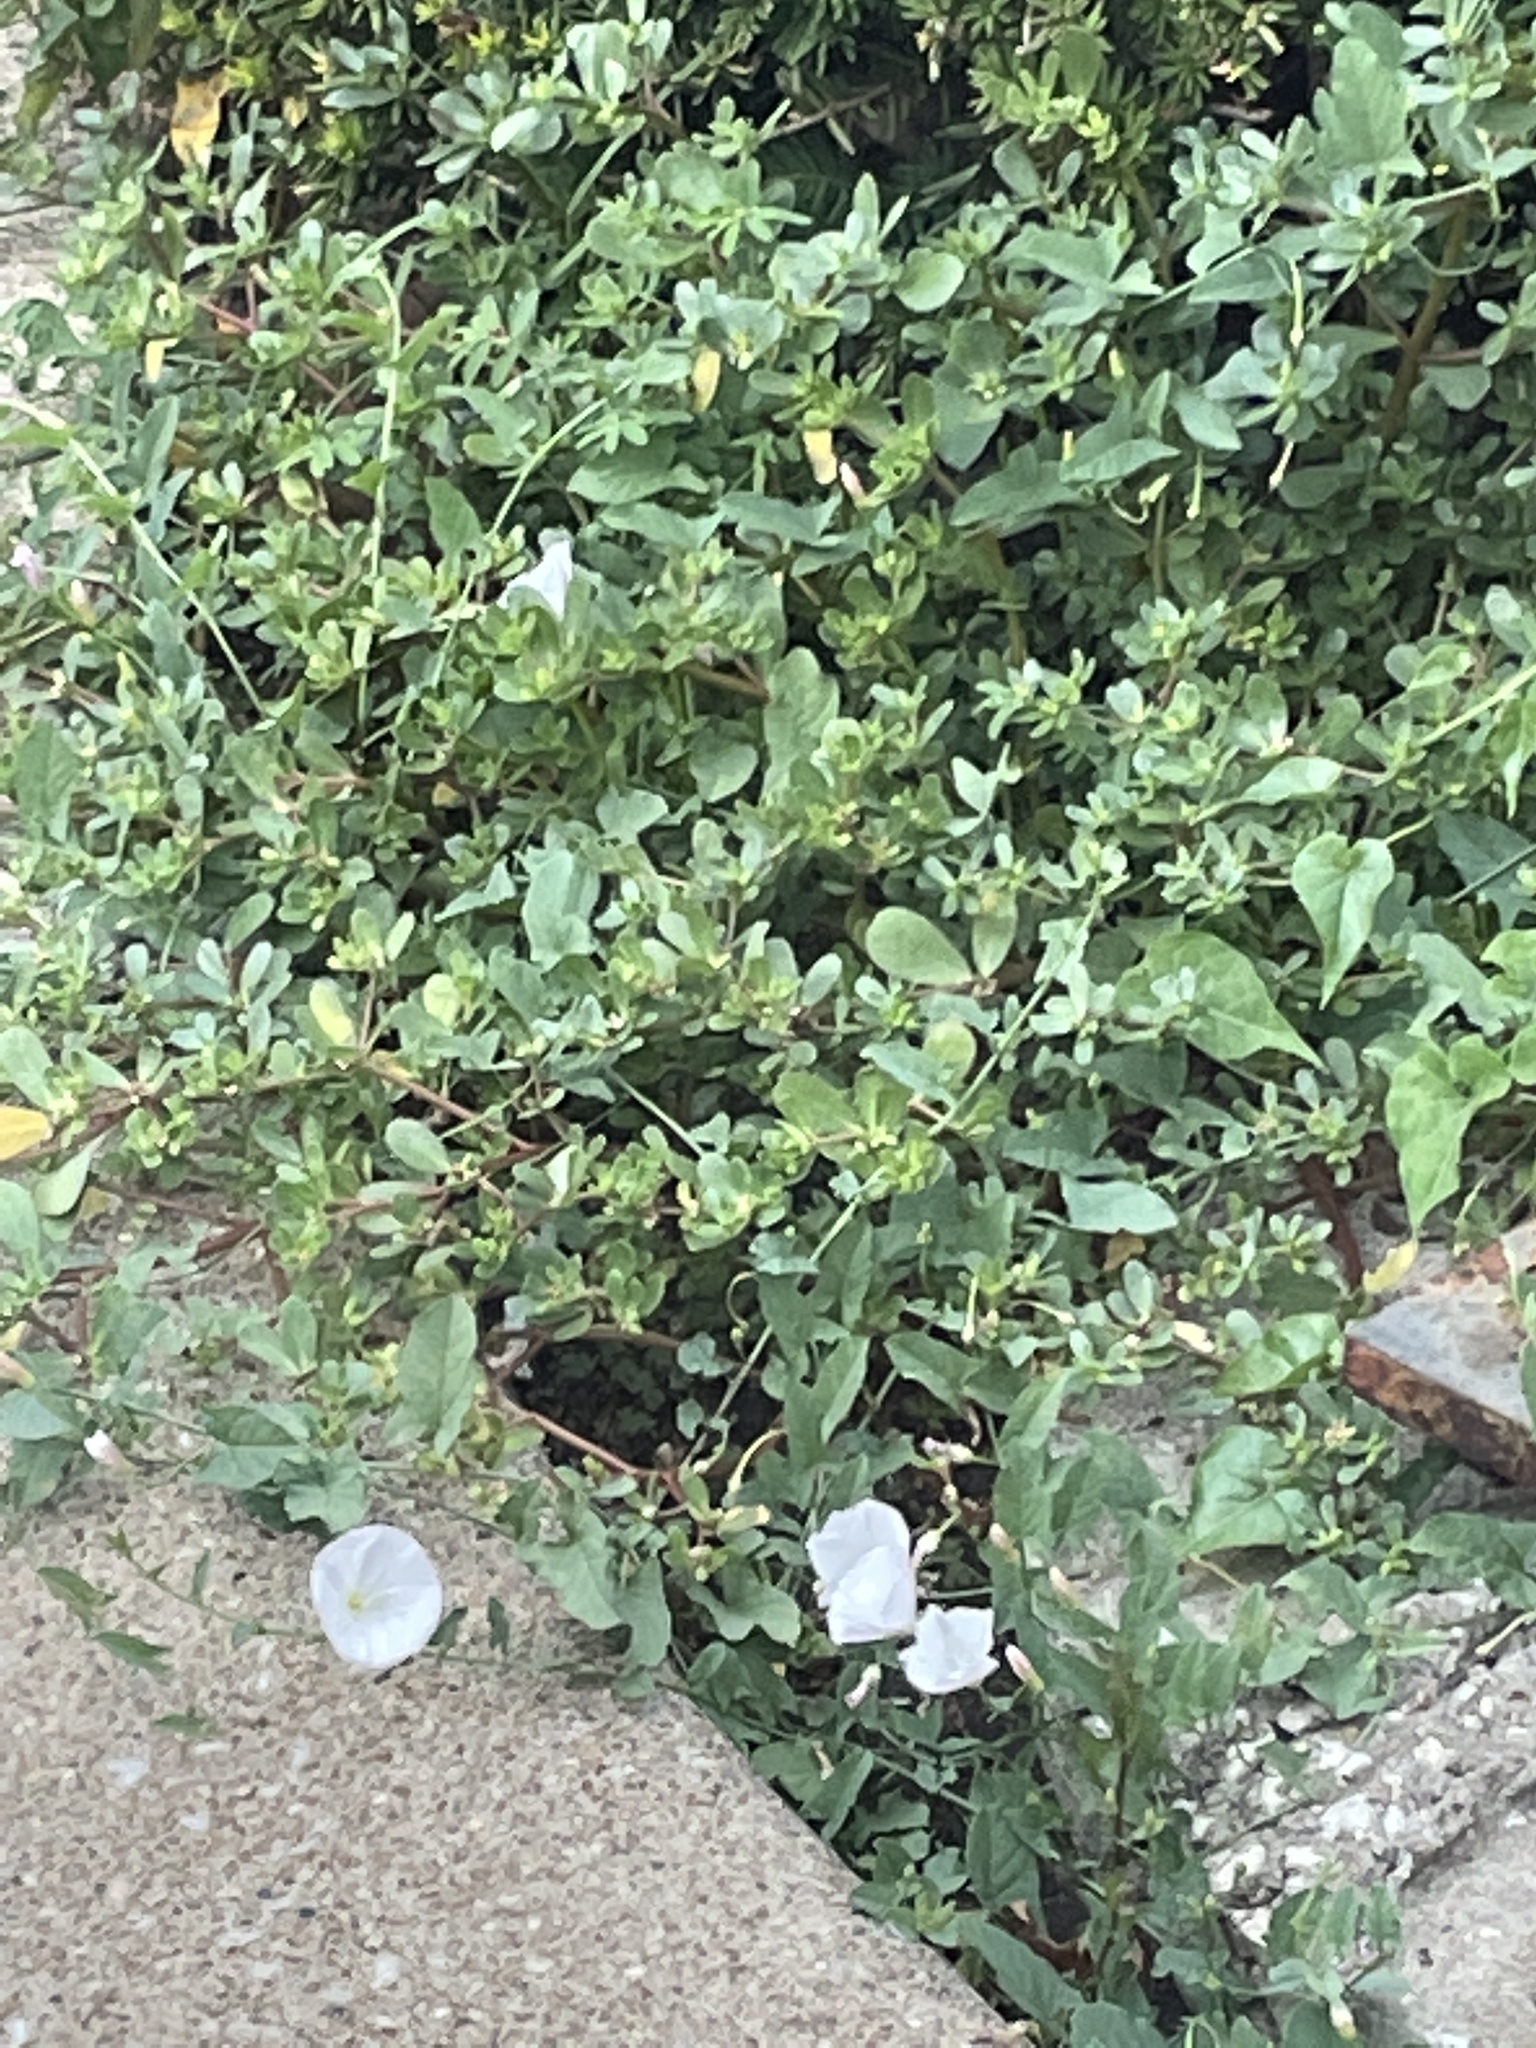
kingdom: Plantae
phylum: Tracheophyta
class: Magnoliopsida
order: Solanales
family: Convolvulaceae
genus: Convolvulus
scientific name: Convolvulus arvensis
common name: Field bindweed
